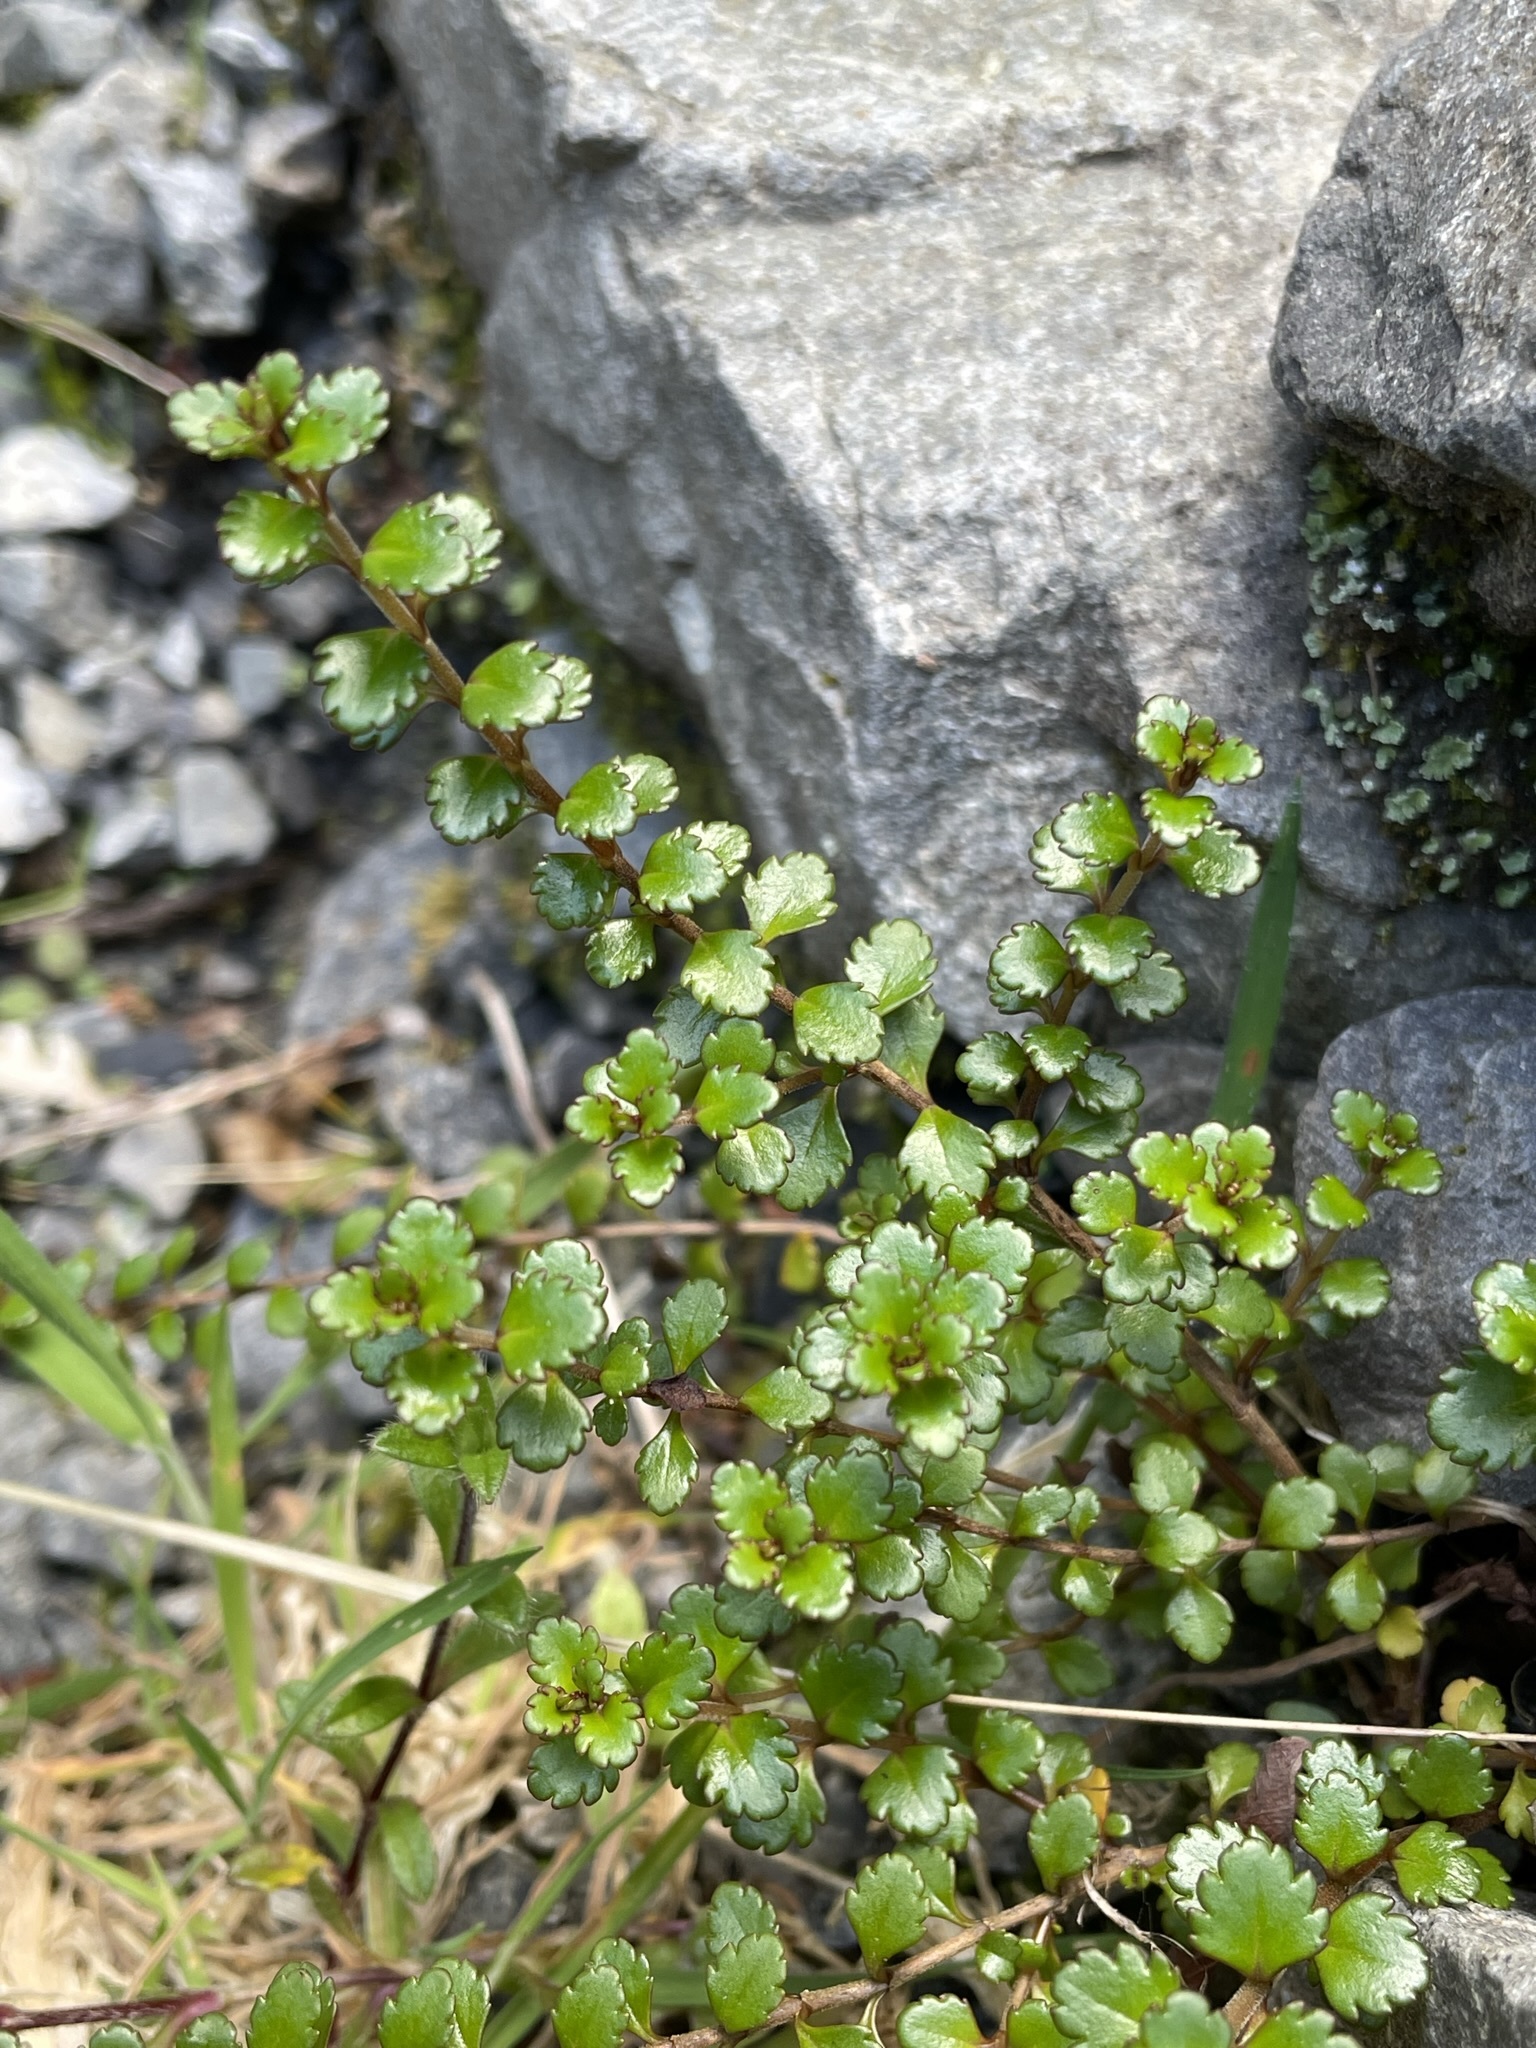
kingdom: Plantae
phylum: Tracheophyta
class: Magnoliopsida
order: Lamiales
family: Plantaginaceae
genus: Veronica
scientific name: Veronica lyallii
